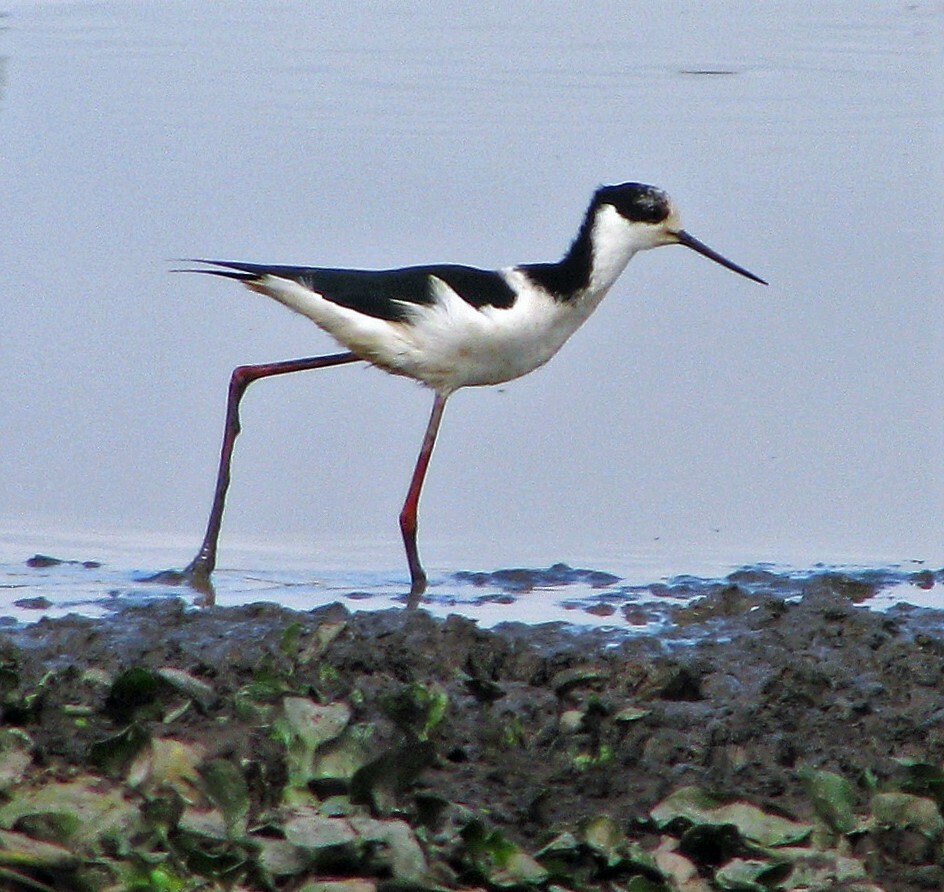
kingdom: Animalia
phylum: Chordata
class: Aves
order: Charadriiformes
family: Recurvirostridae
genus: Himantopus
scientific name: Himantopus mexicanus
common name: Black-necked stilt
